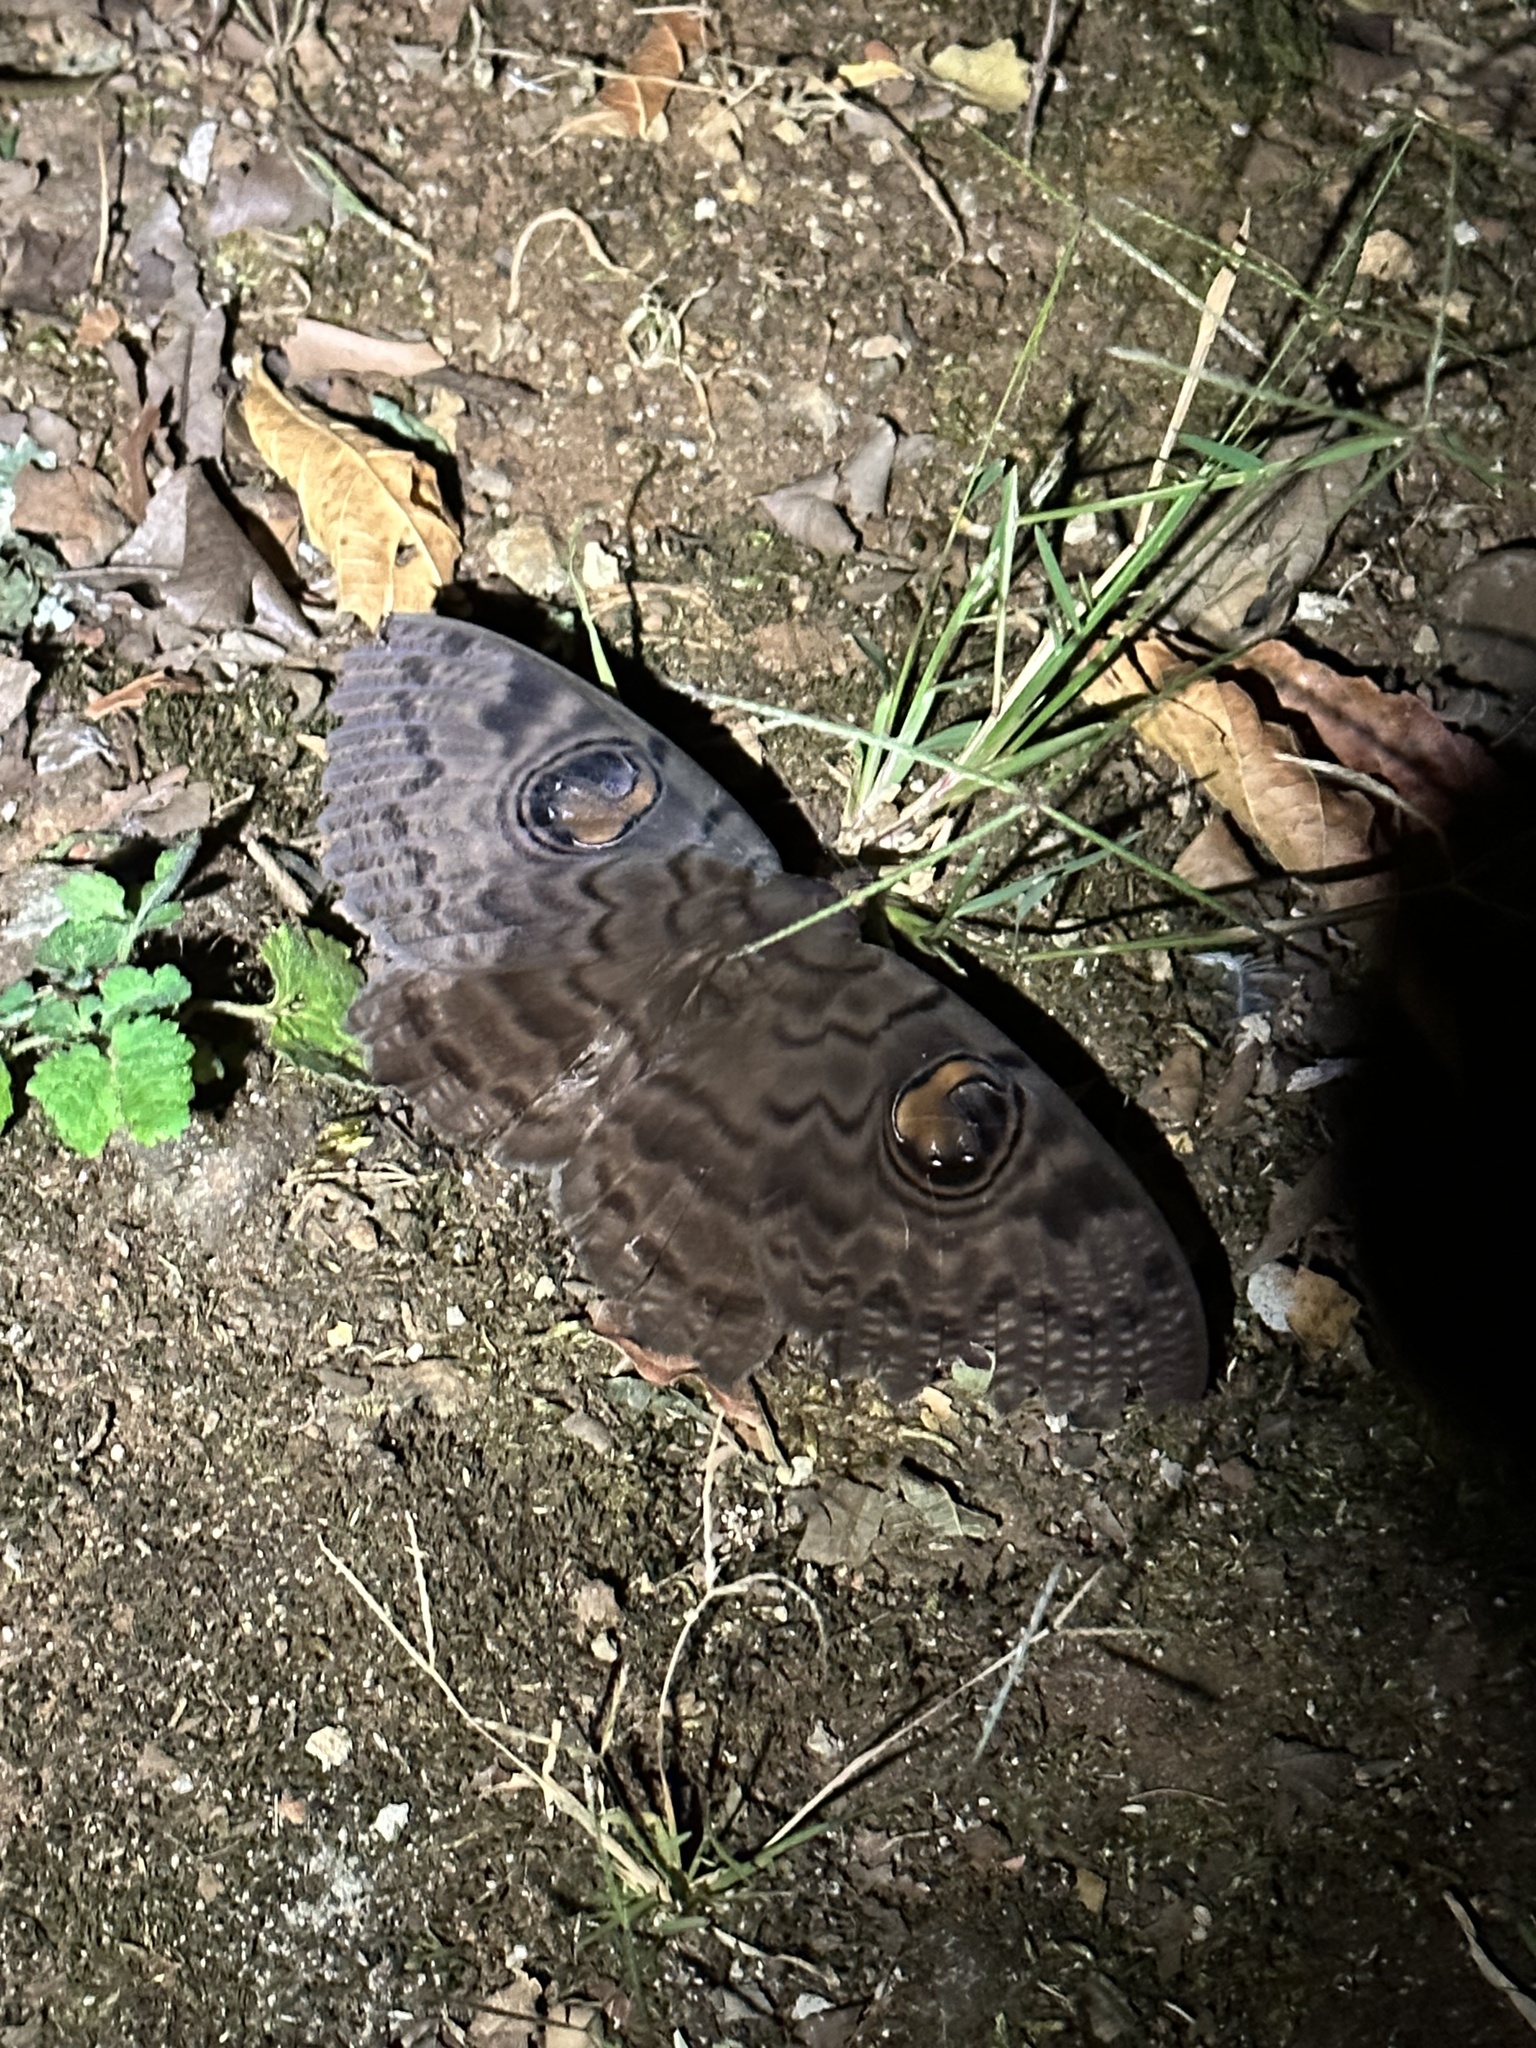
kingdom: Animalia
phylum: Arthropoda
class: Insecta
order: Lepidoptera
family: Erebidae
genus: Erebus
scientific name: Erebus walkeri
